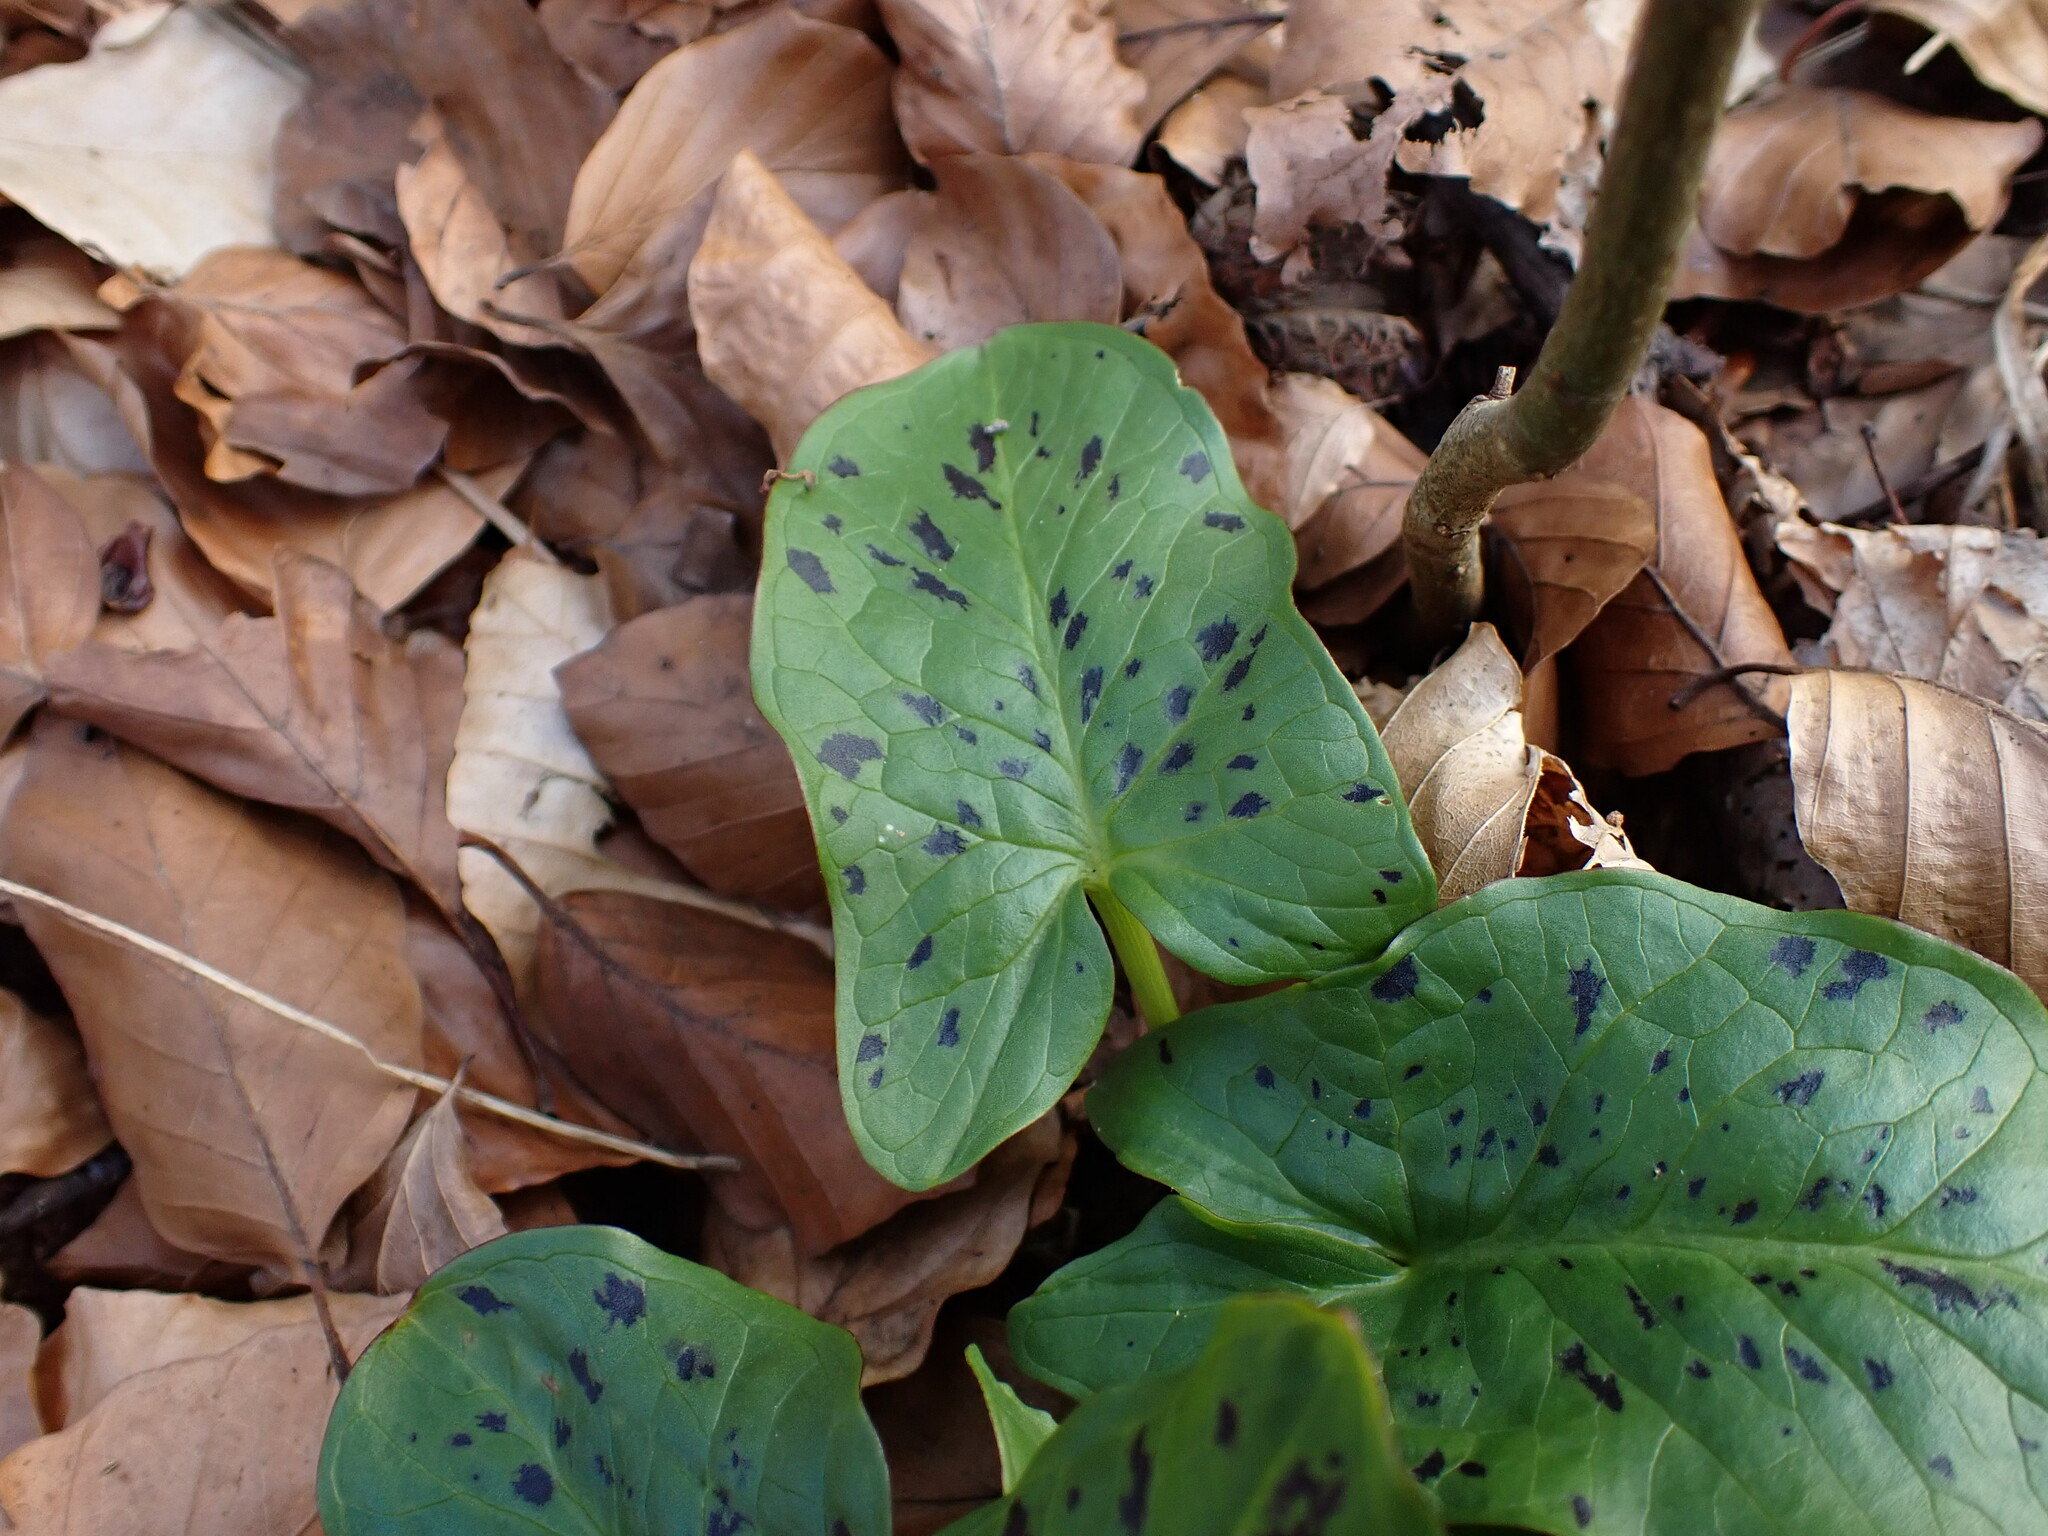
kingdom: Plantae
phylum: Tracheophyta
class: Liliopsida
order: Alismatales
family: Araceae
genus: Arum
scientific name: Arum maculatum
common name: Lords-and-ladies
